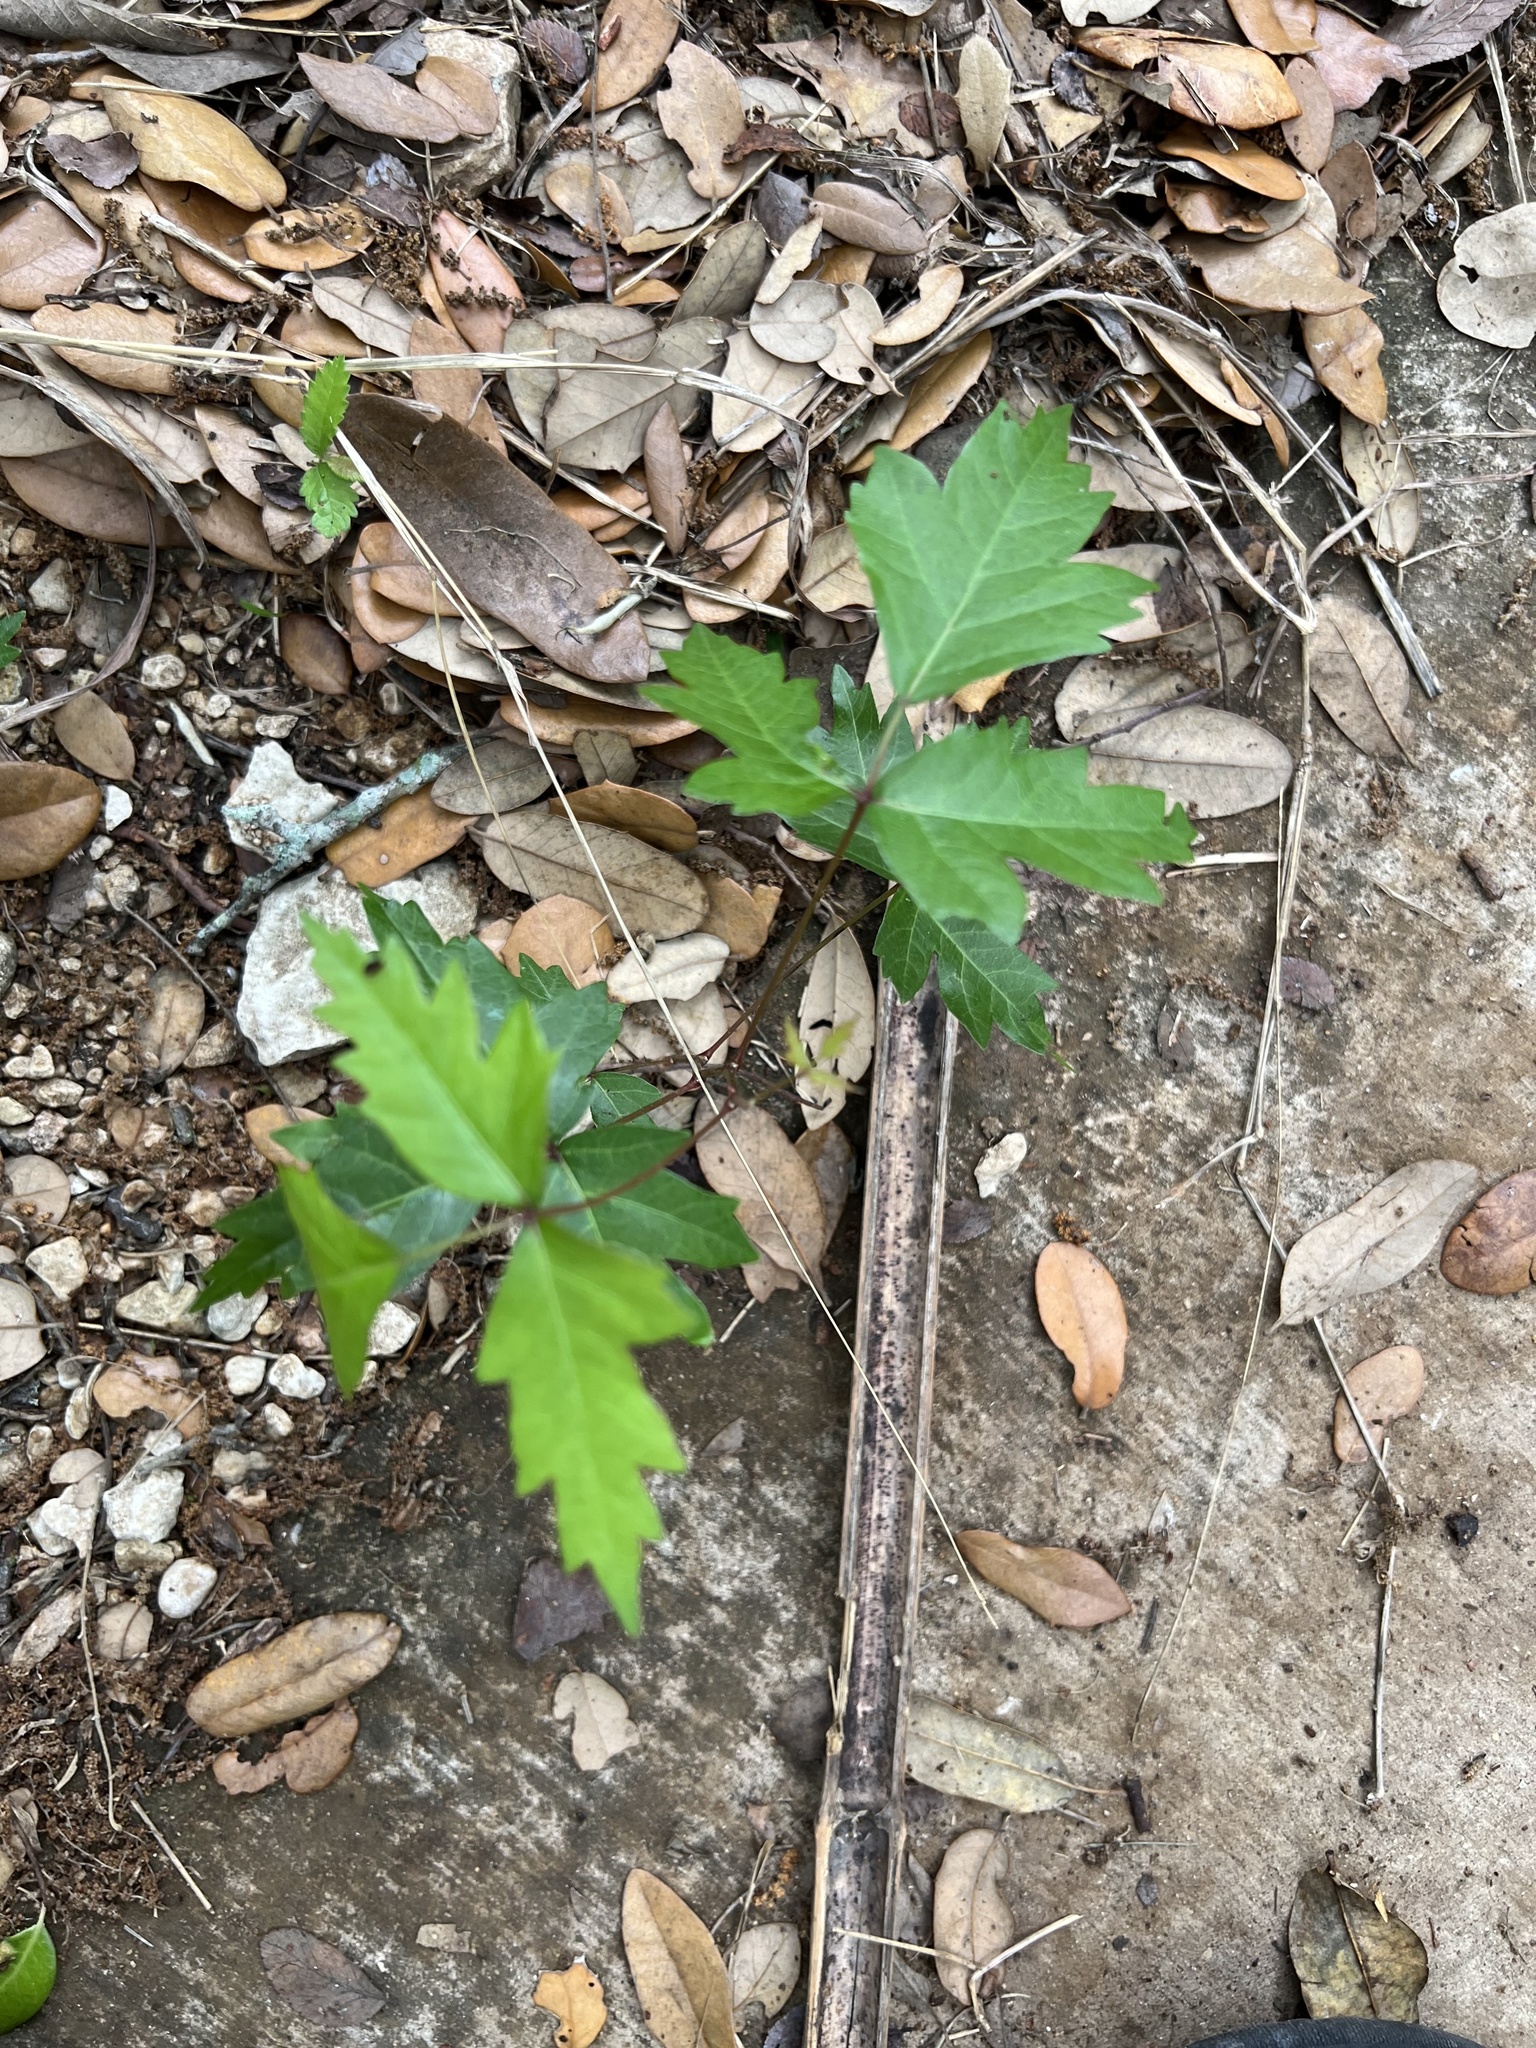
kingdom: Plantae
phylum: Tracheophyta
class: Magnoliopsida
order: Sapindales
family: Anacardiaceae
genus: Toxicodendron
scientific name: Toxicodendron radicans
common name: Poison ivy
